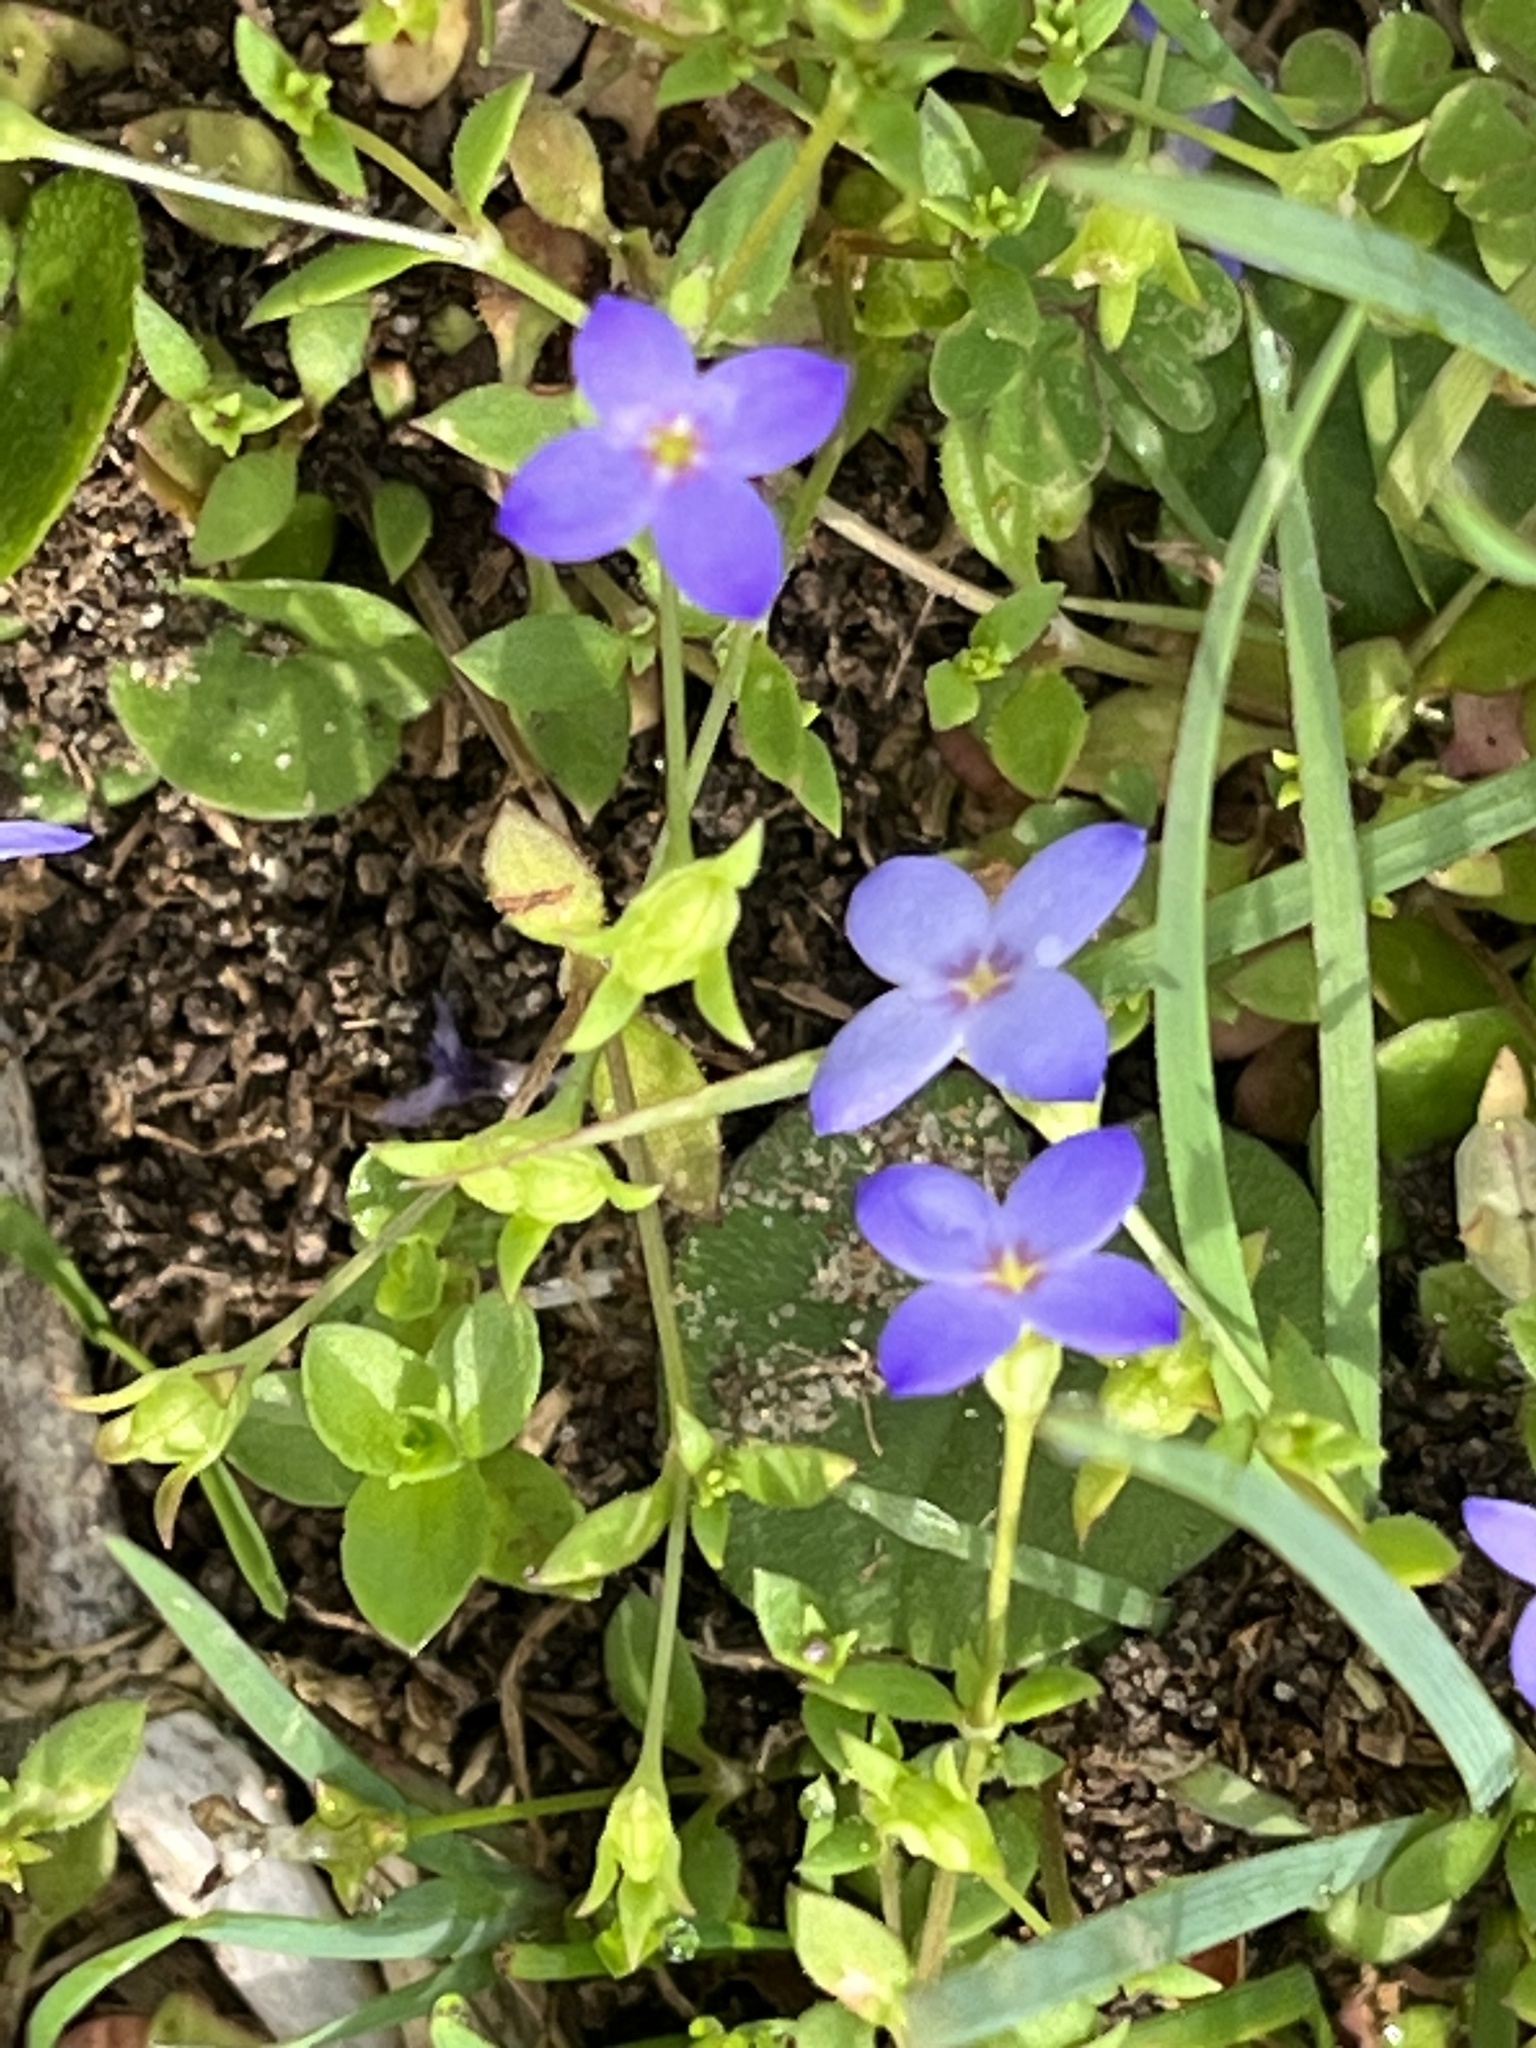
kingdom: Plantae
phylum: Tracheophyta
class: Magnoliopsida
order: Gentianales
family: Rubiaceae
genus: Houstonia
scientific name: Houstonia pusilla
